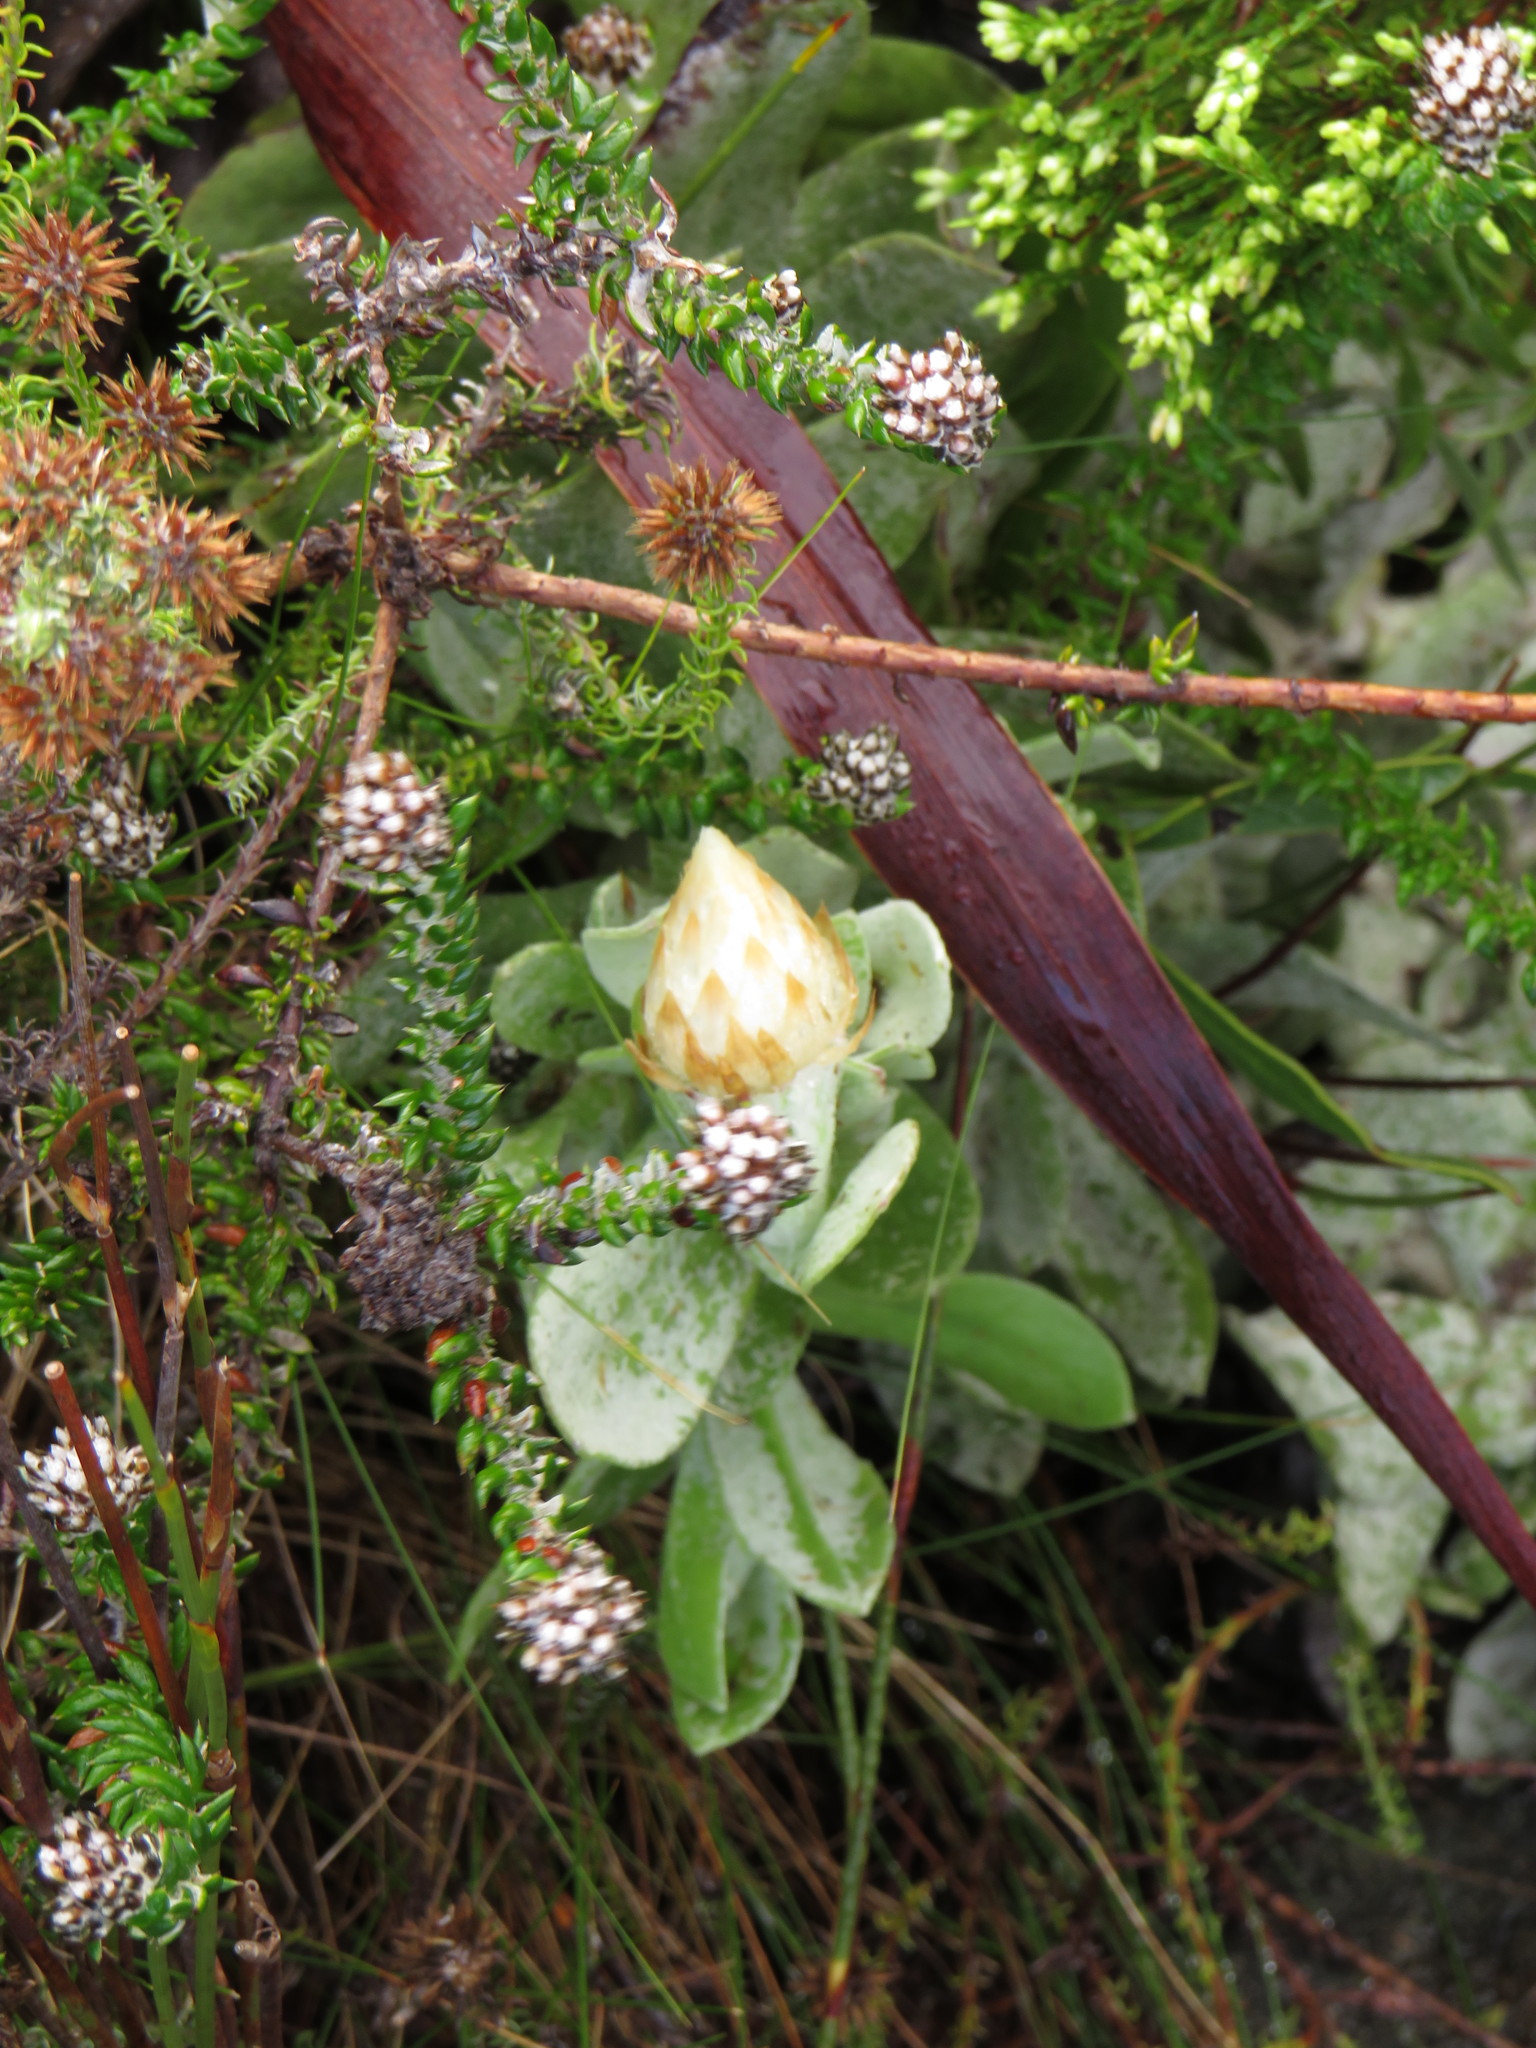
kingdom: Plantae
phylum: Tracheophyta
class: Magnoliopsida
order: Asterales
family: Asteraceae
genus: Syncarpha
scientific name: Syncarpha speciosissima
